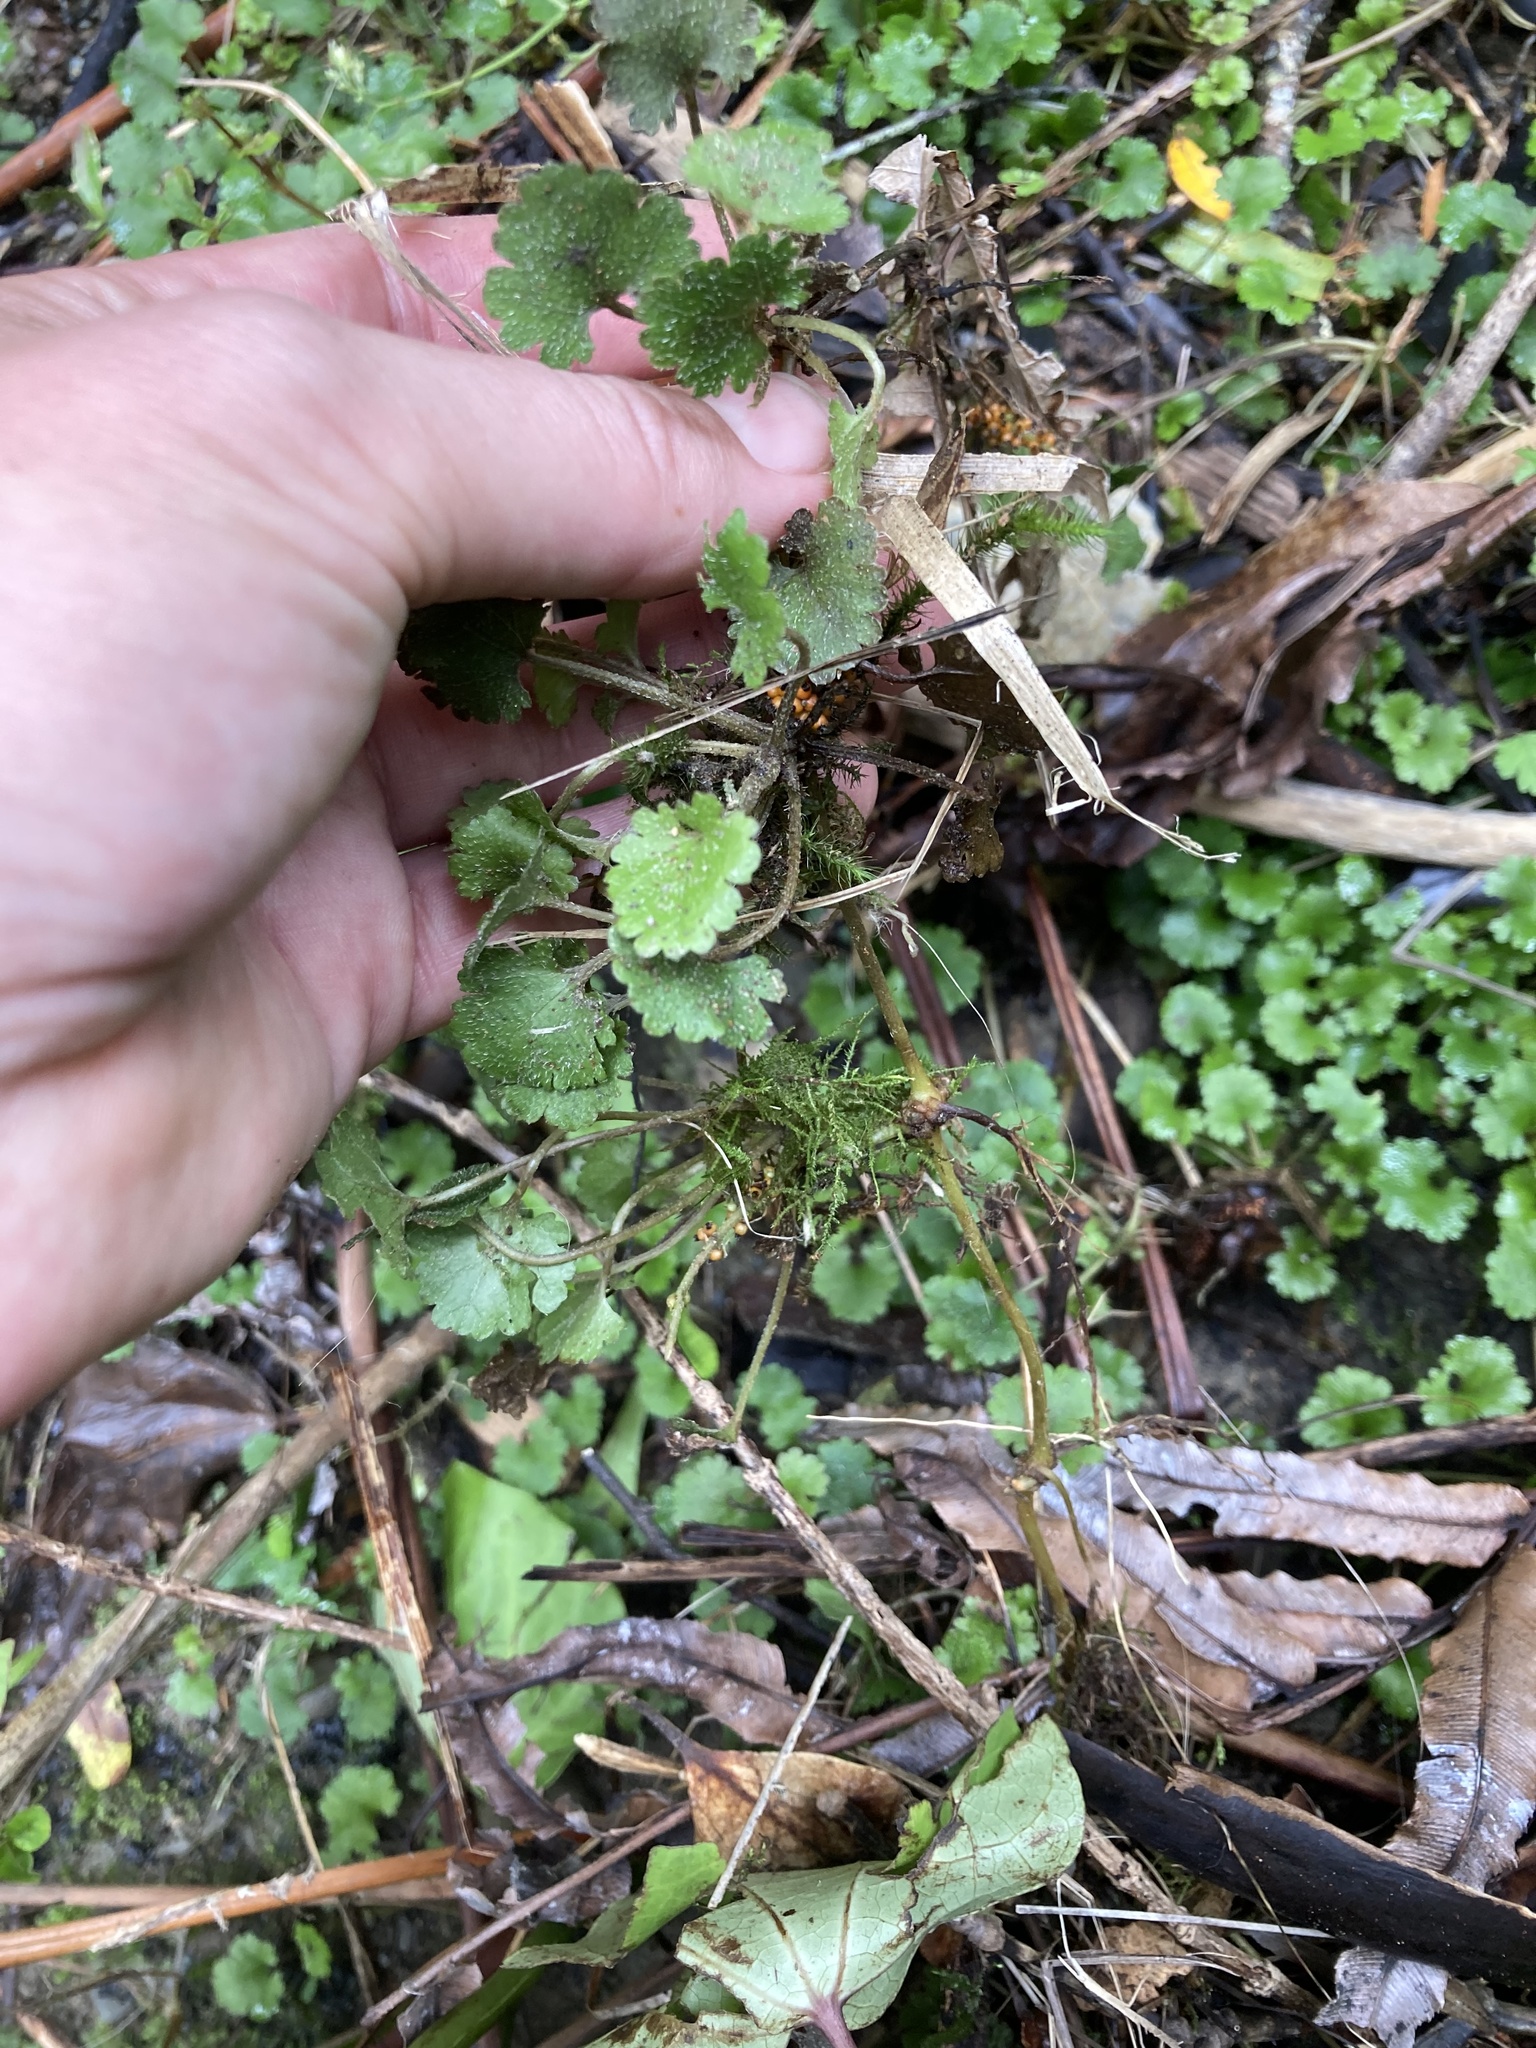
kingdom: Plantae
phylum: Tracheophyta
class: Magnoliopsida
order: Gunnerales
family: Gunneraceae
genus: Gunnera
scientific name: Gunnera monoica
